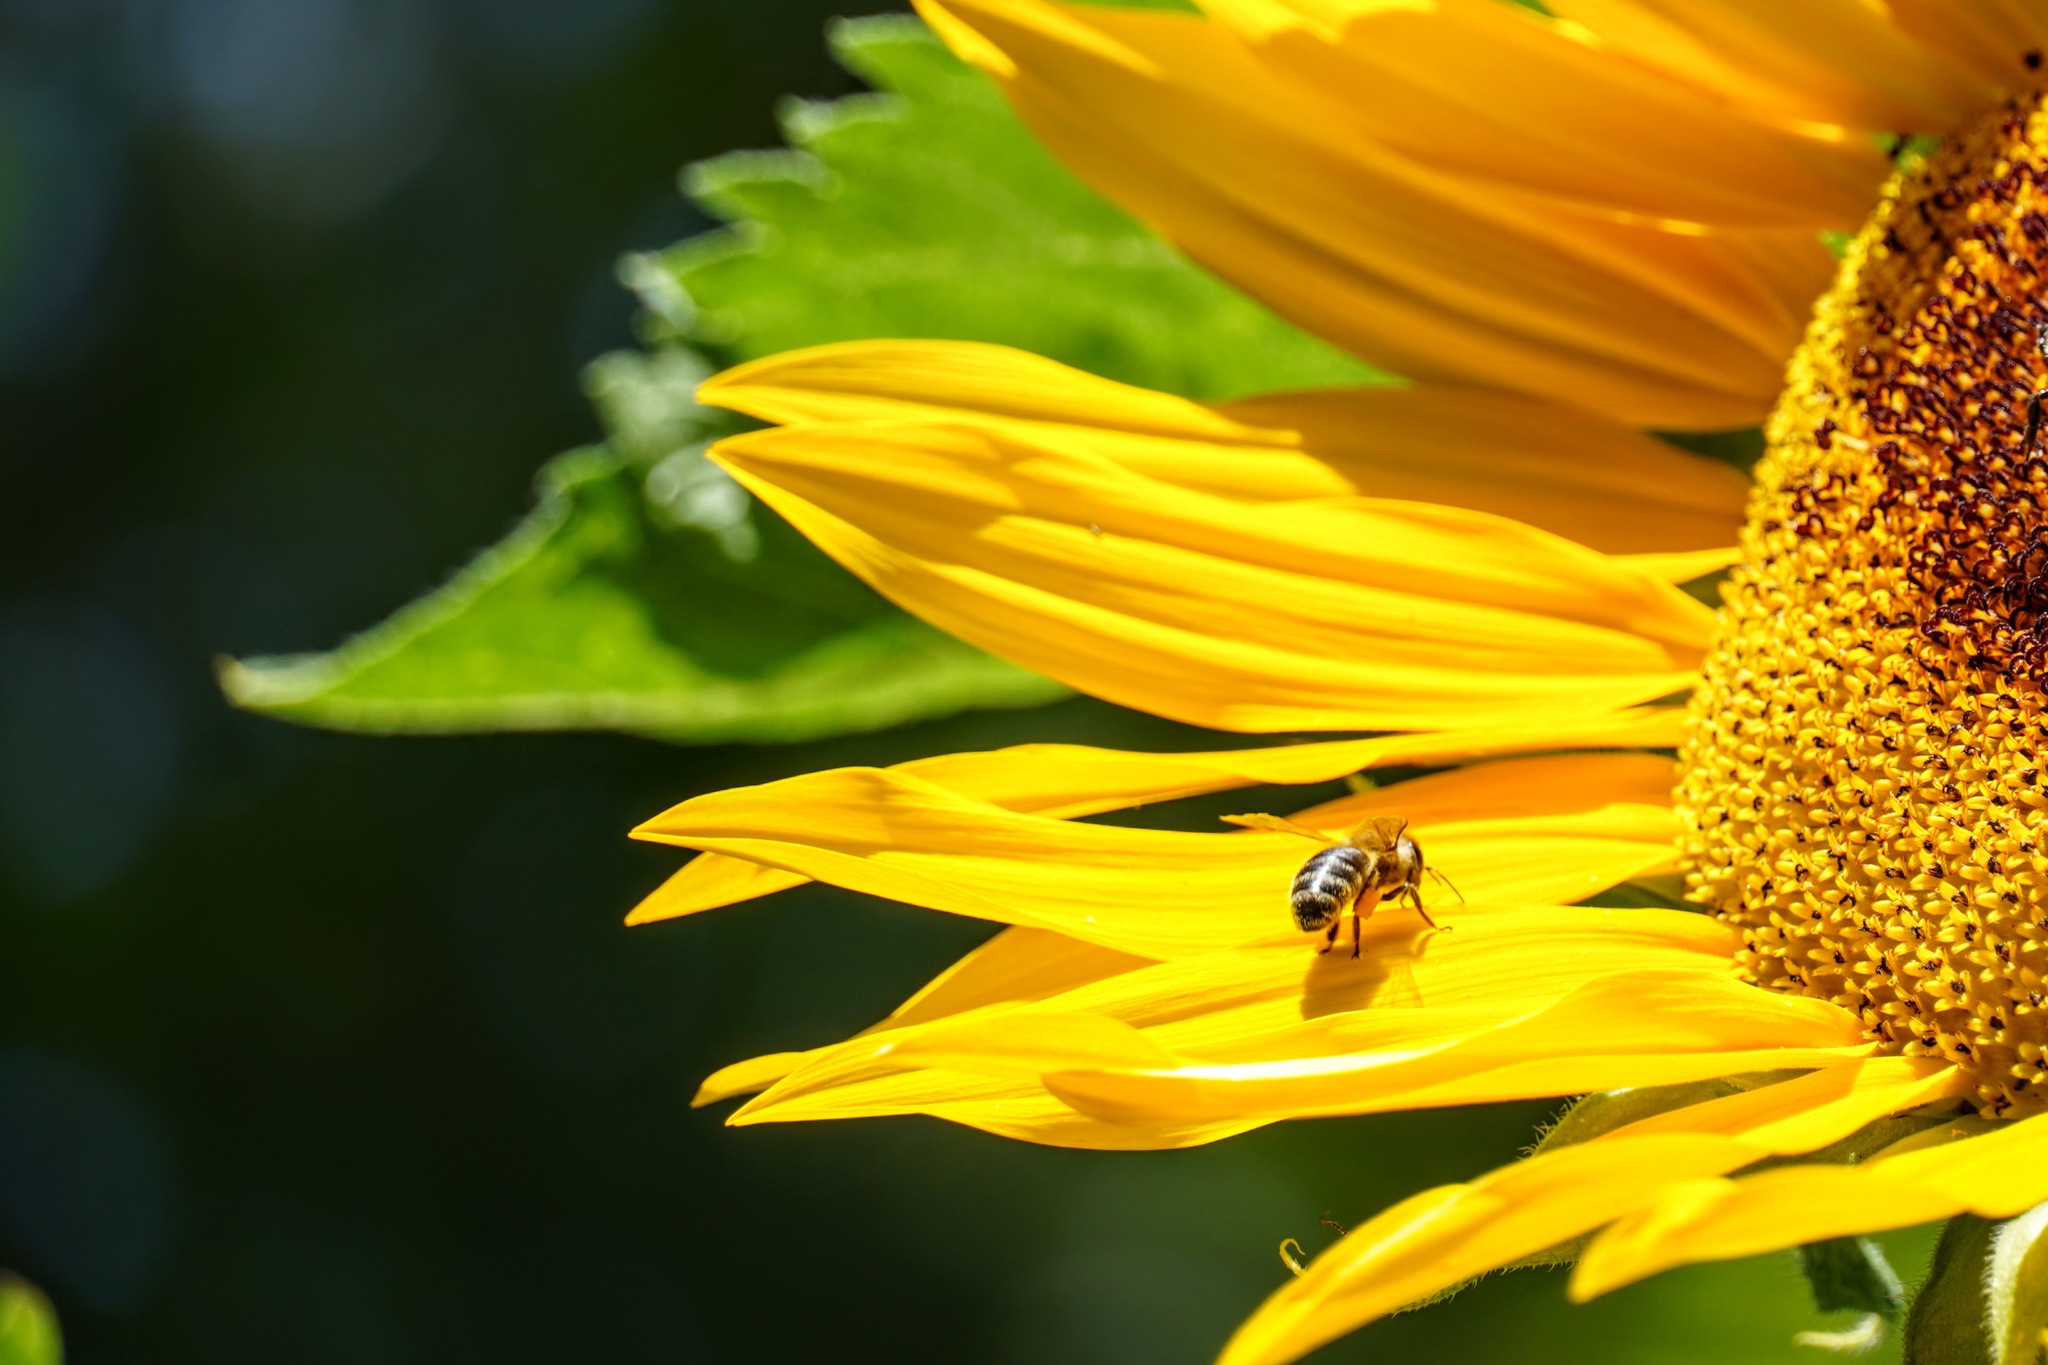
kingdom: Animalia
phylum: Arthropoda
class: Insecta
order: Hymenoptera
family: Apidae
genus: Apis
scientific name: Apis mellifera
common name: Honey bee
